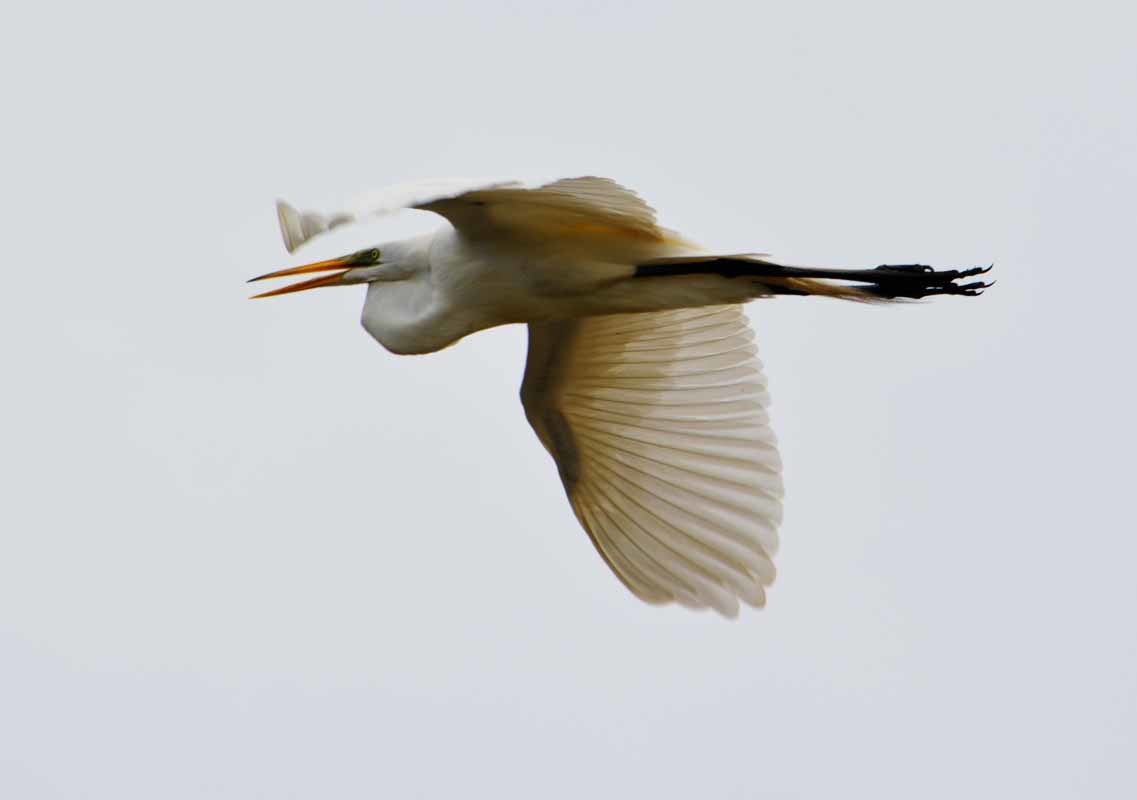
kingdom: Animalia
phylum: Chordata
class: Aves
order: Pelecaniformes
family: Ardeidae
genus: Ardea
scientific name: Ardea alba
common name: Great egret
